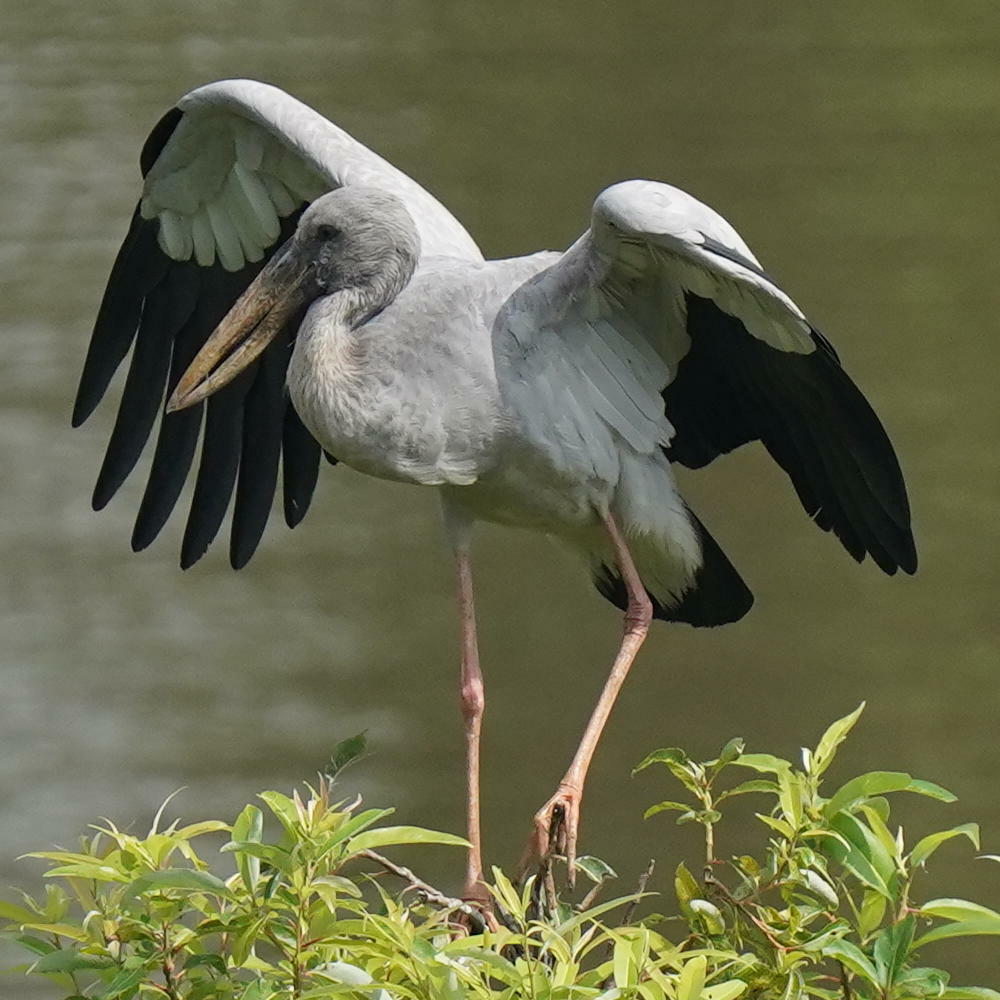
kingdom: Animalia
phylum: Chordata
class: Aves
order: Ciconiiformes
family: Ciconiidae
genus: Anastomus
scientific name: Anastomus oscitans
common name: Asian openbill
